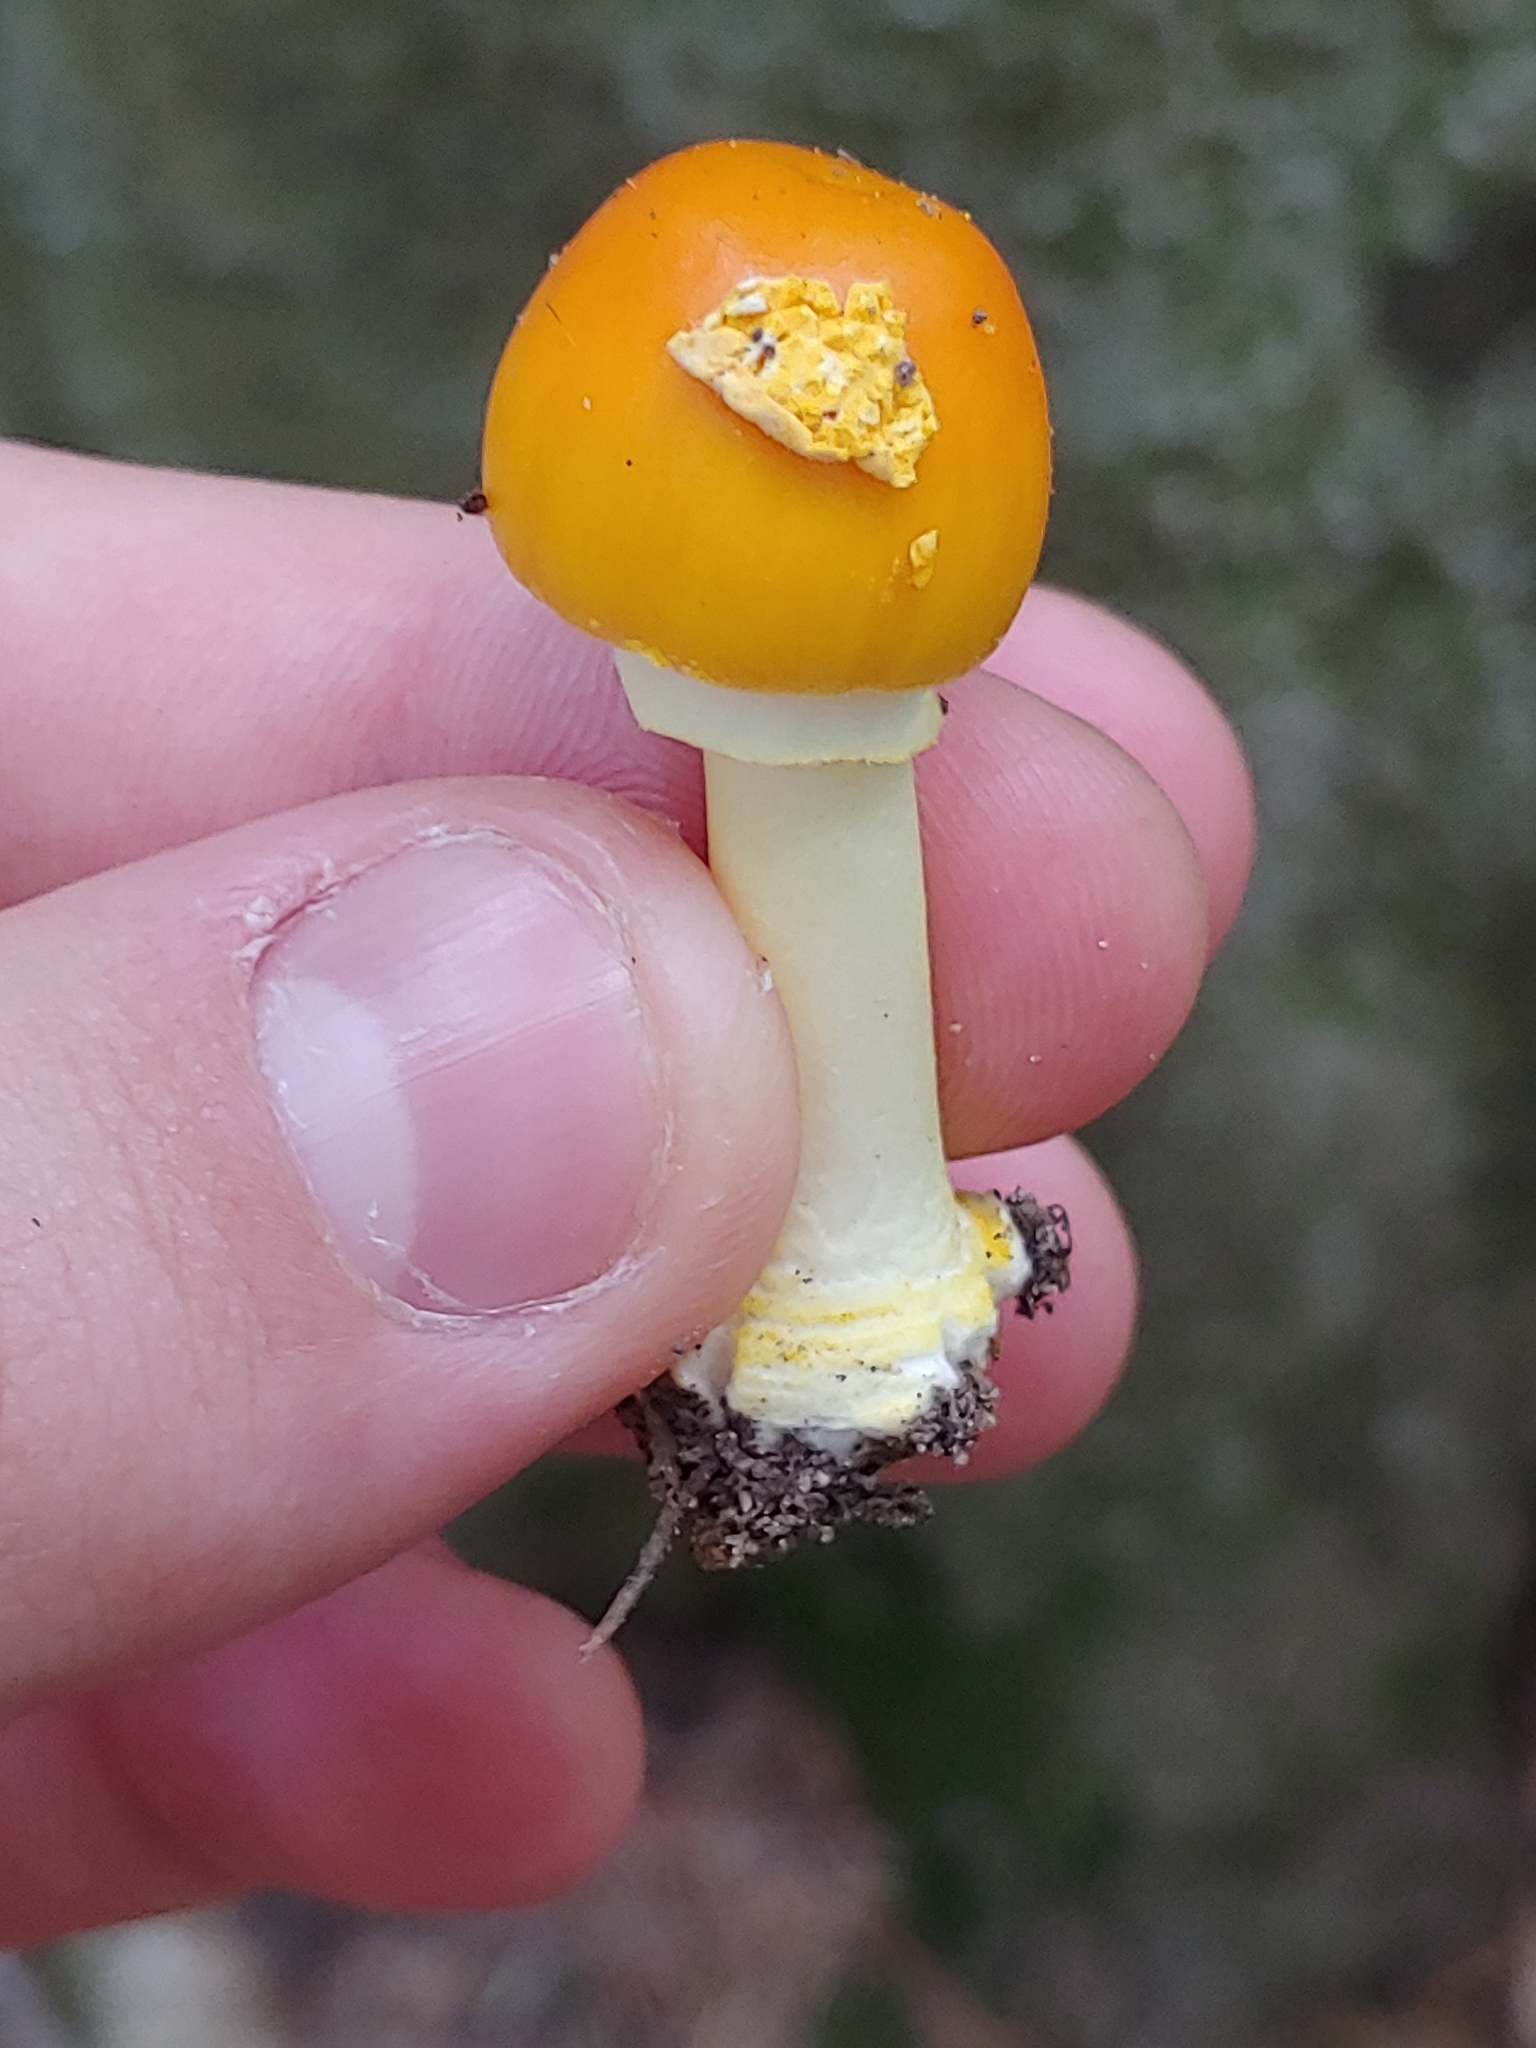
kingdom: Fungi
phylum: Basidiomycota
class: Agaricomycetes
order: Agaricales
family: Amanitaceae
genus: Amanita
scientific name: Amanita flavoconia
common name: Yellow patches
